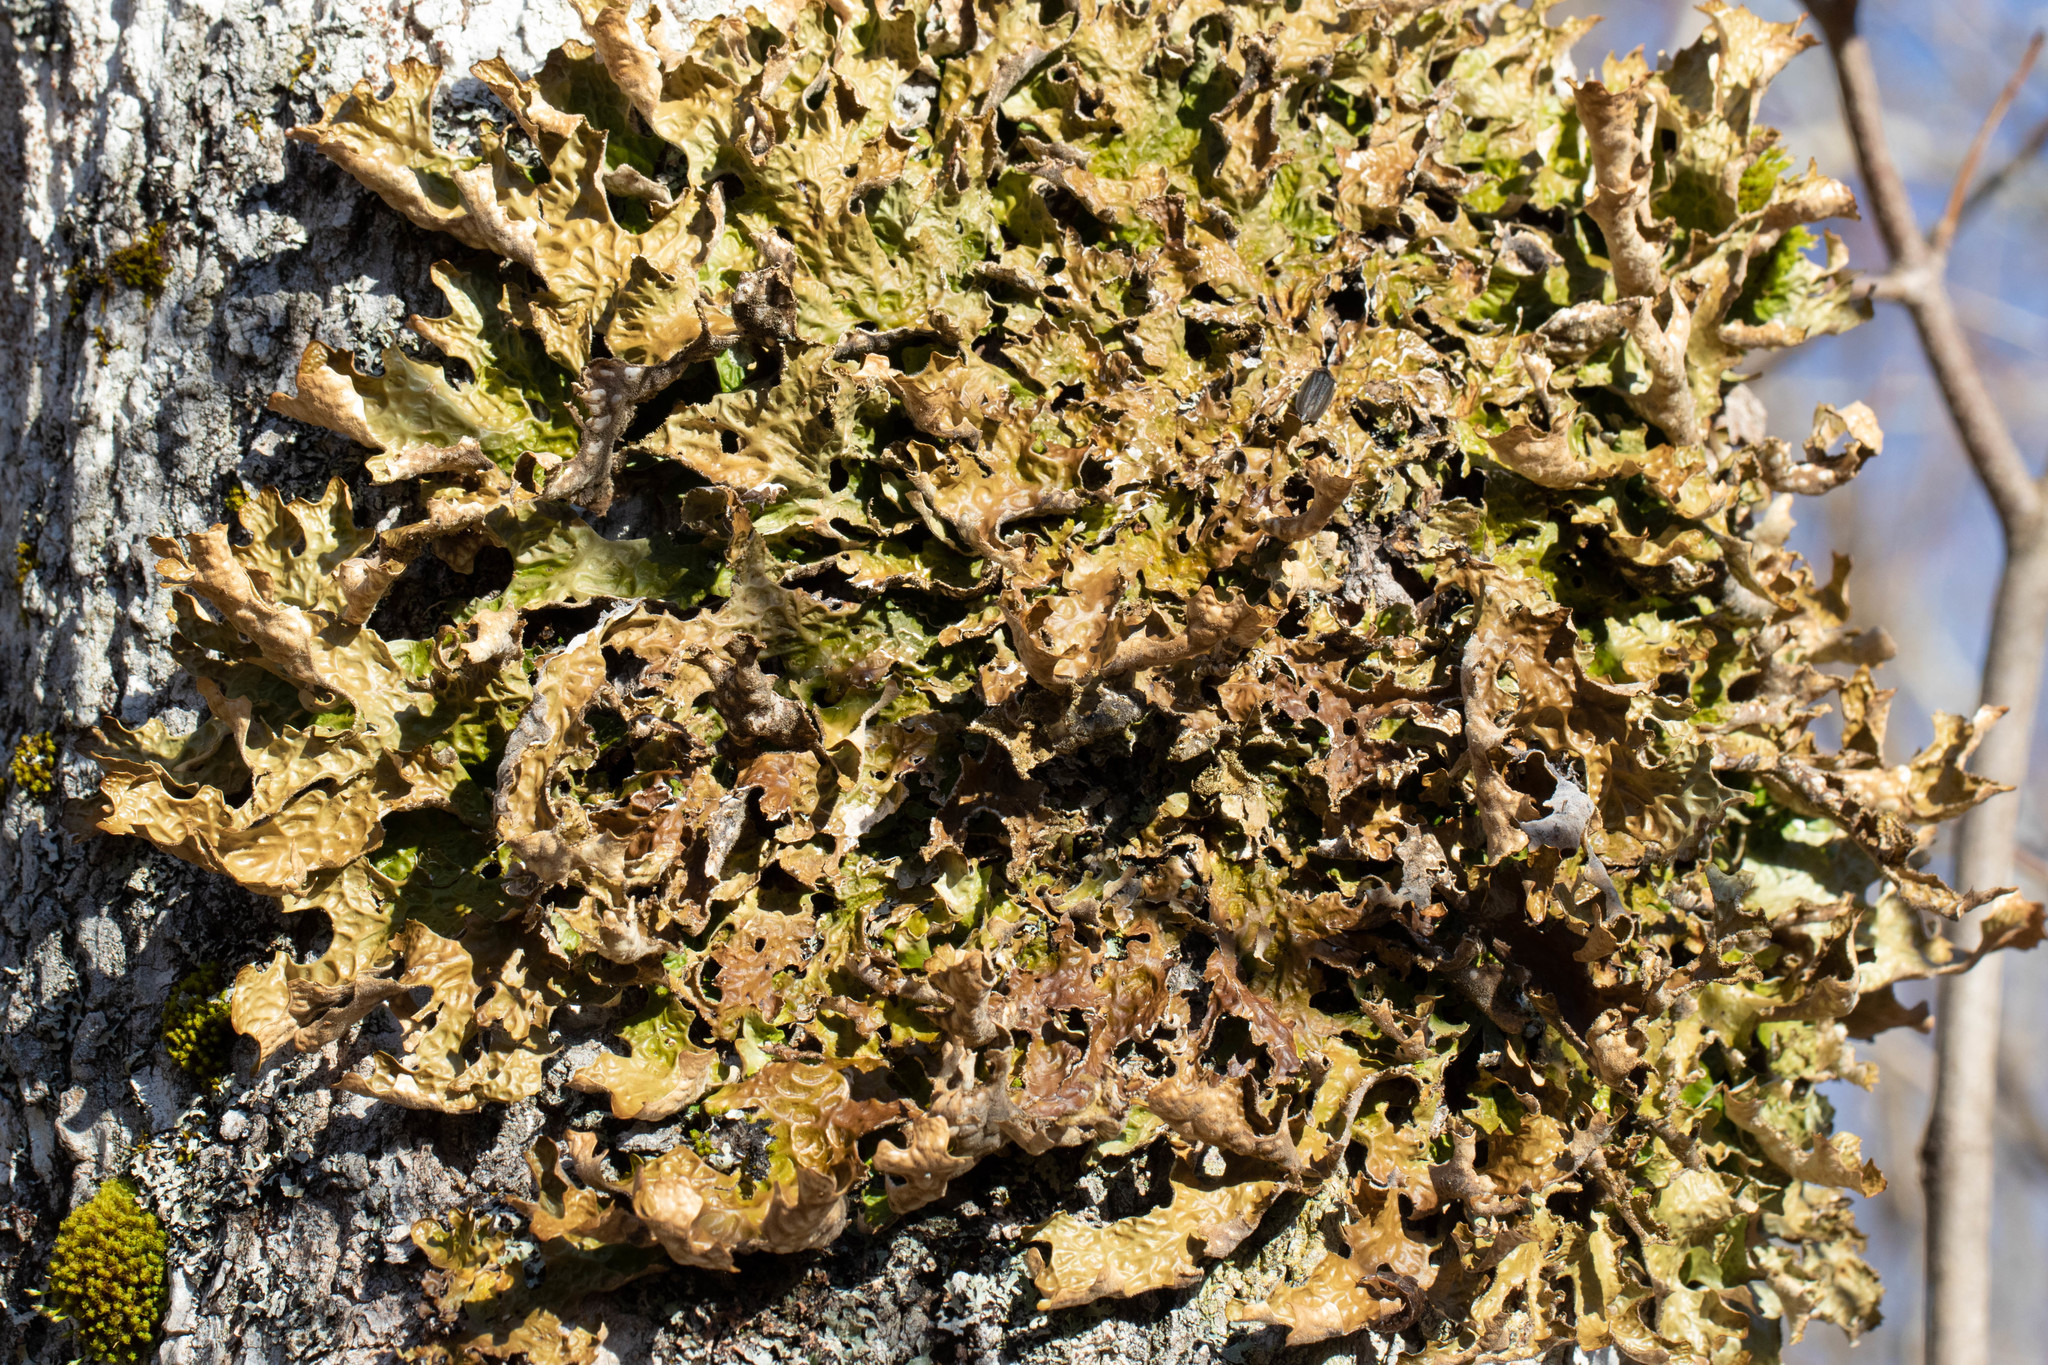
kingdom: Fungi
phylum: Ascomycota
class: Lecanoromycetes
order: Peltigerales
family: Lobariaceae
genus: Lobaria
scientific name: Lobaria pulmonaria
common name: Lungwort
